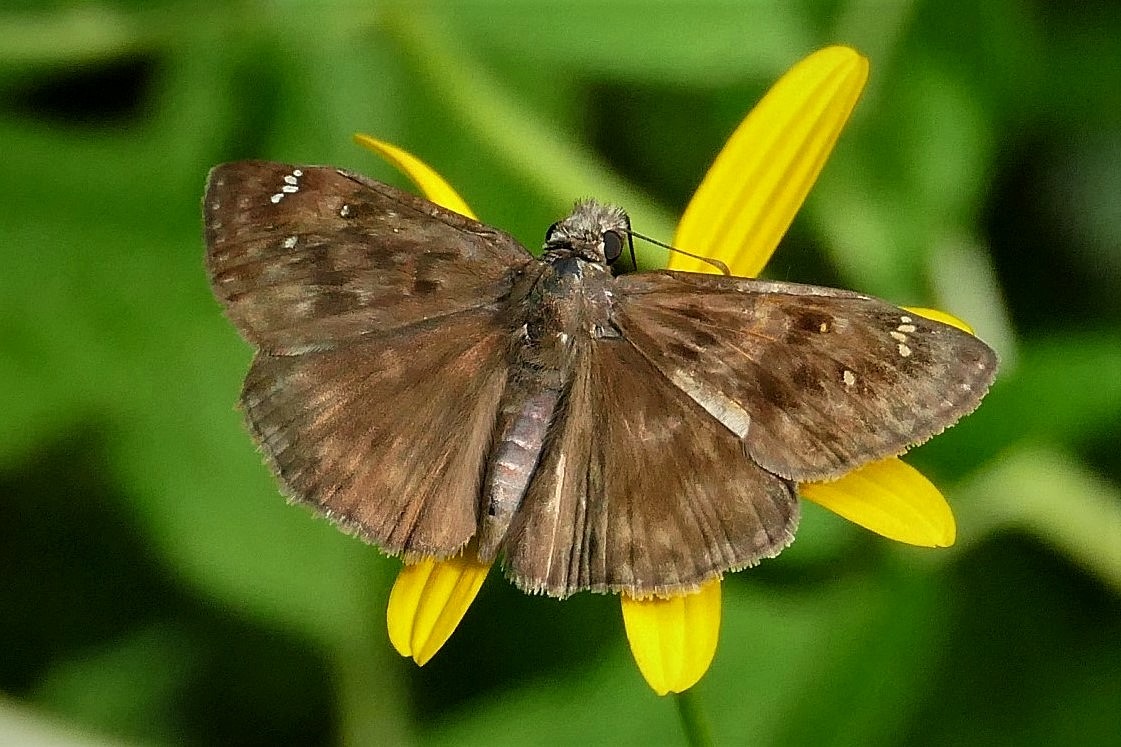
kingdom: Animalia
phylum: Arthropoda
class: Insecta
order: Lepidoptera
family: Hesperiidae
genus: Erynnis
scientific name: Erynnis horatius
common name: Horace's duskywing
